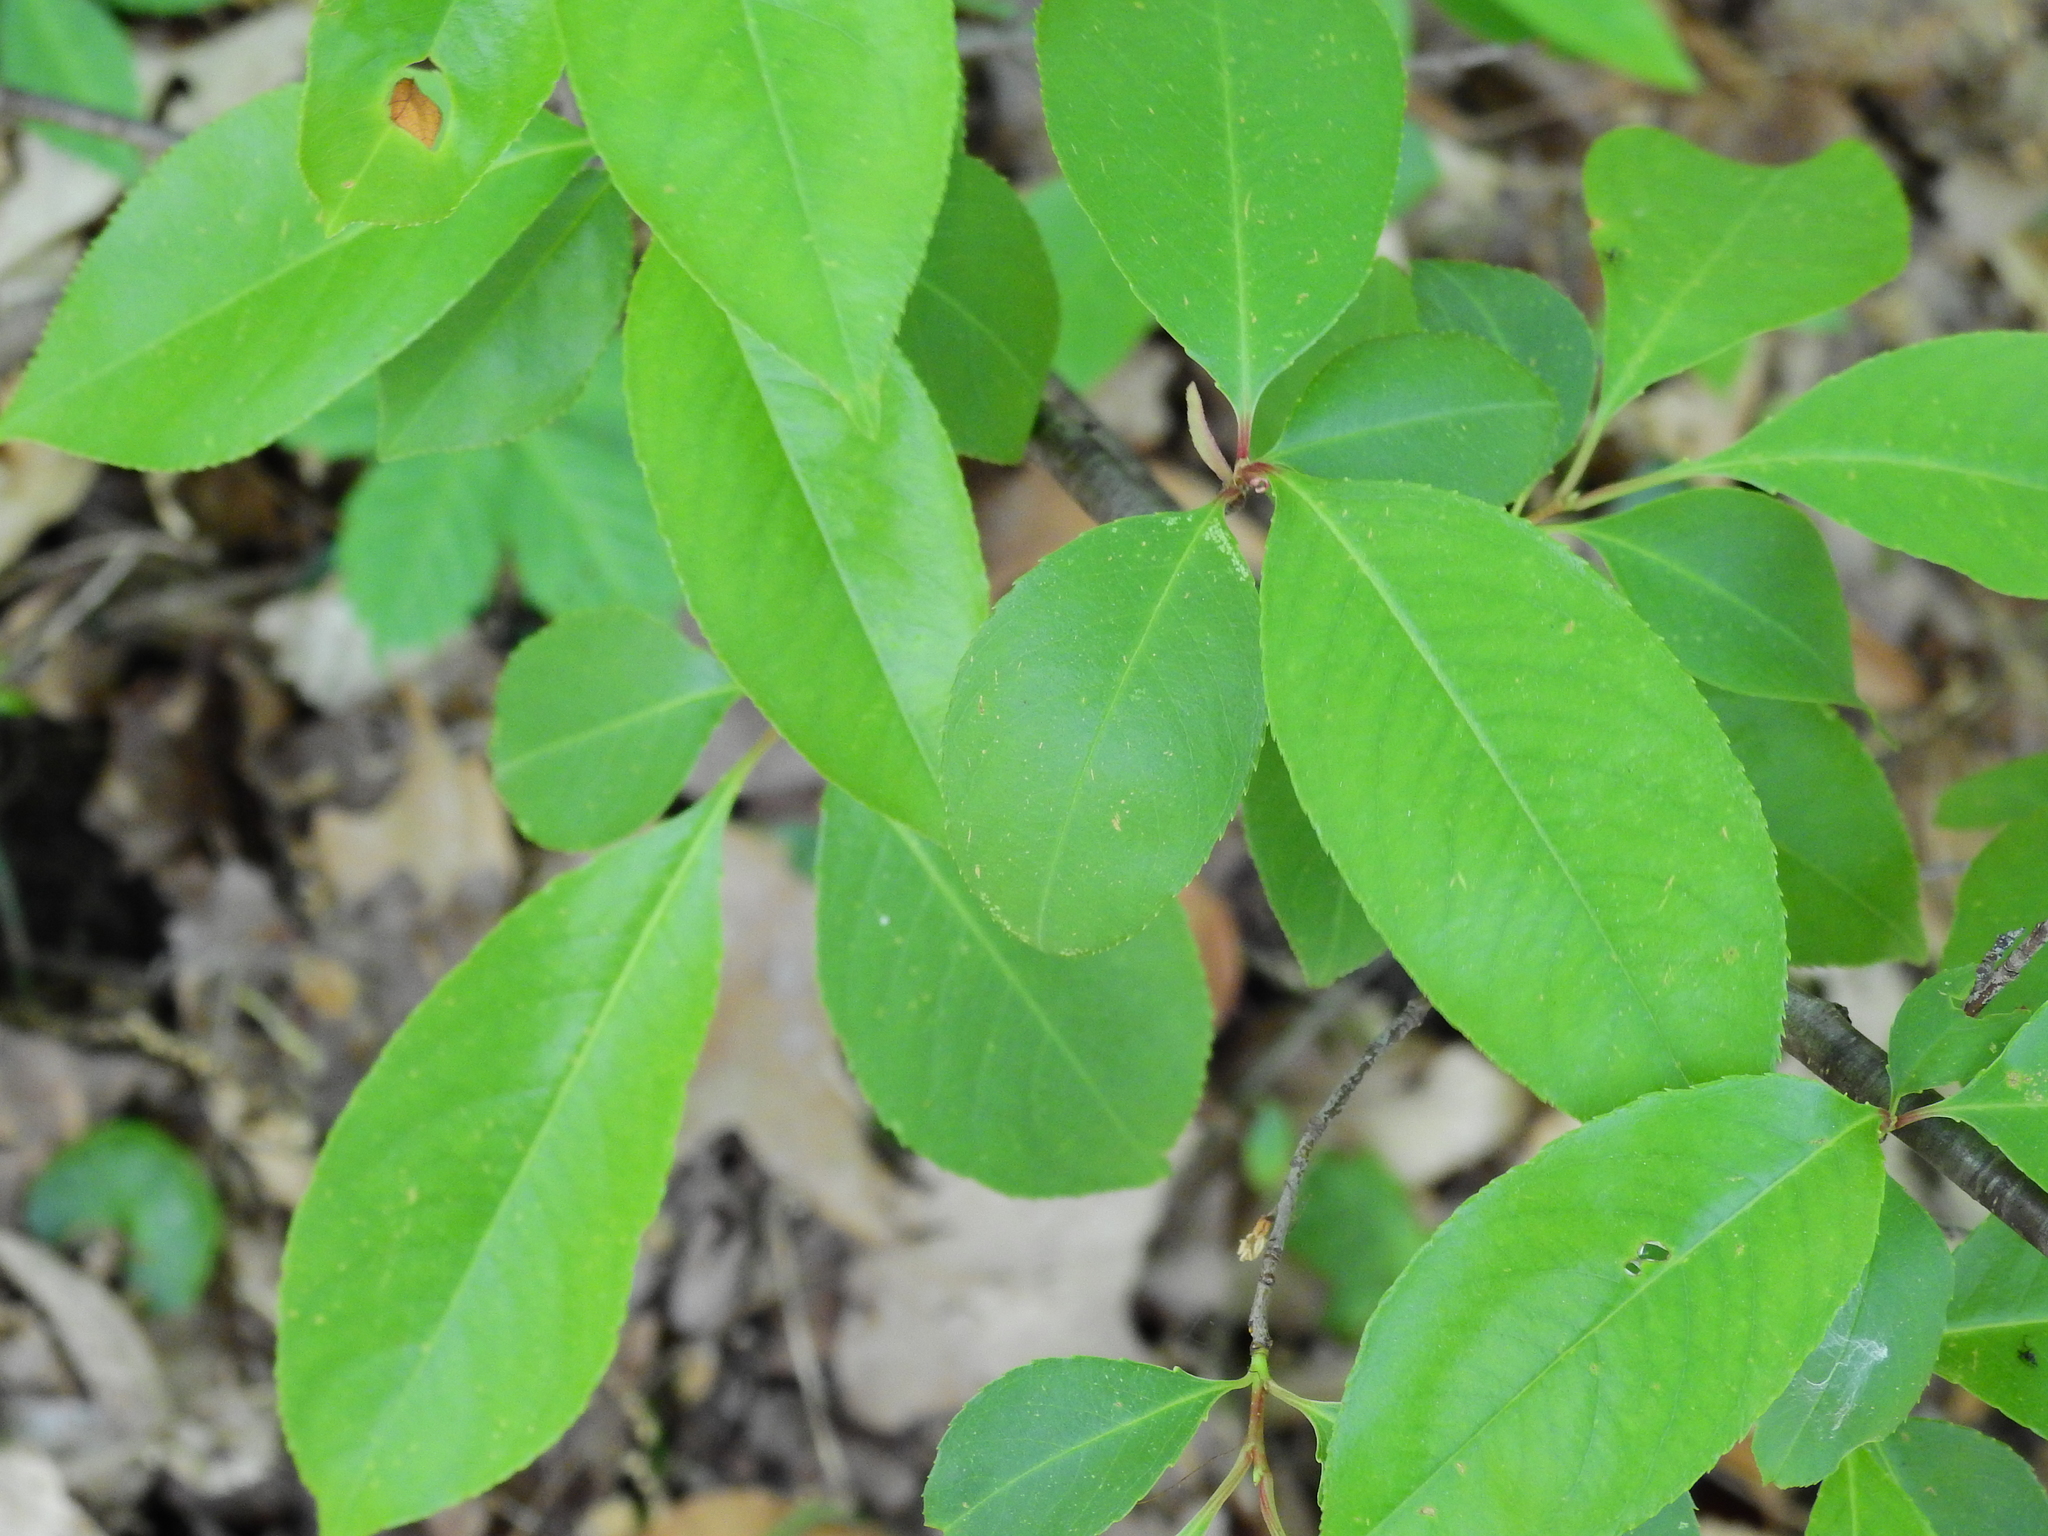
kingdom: Plantae
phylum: Tracheophyta
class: Magnoliopsida
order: Rosales
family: Rosaceae
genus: Prunus
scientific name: Prunus serotina
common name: Black cherry
